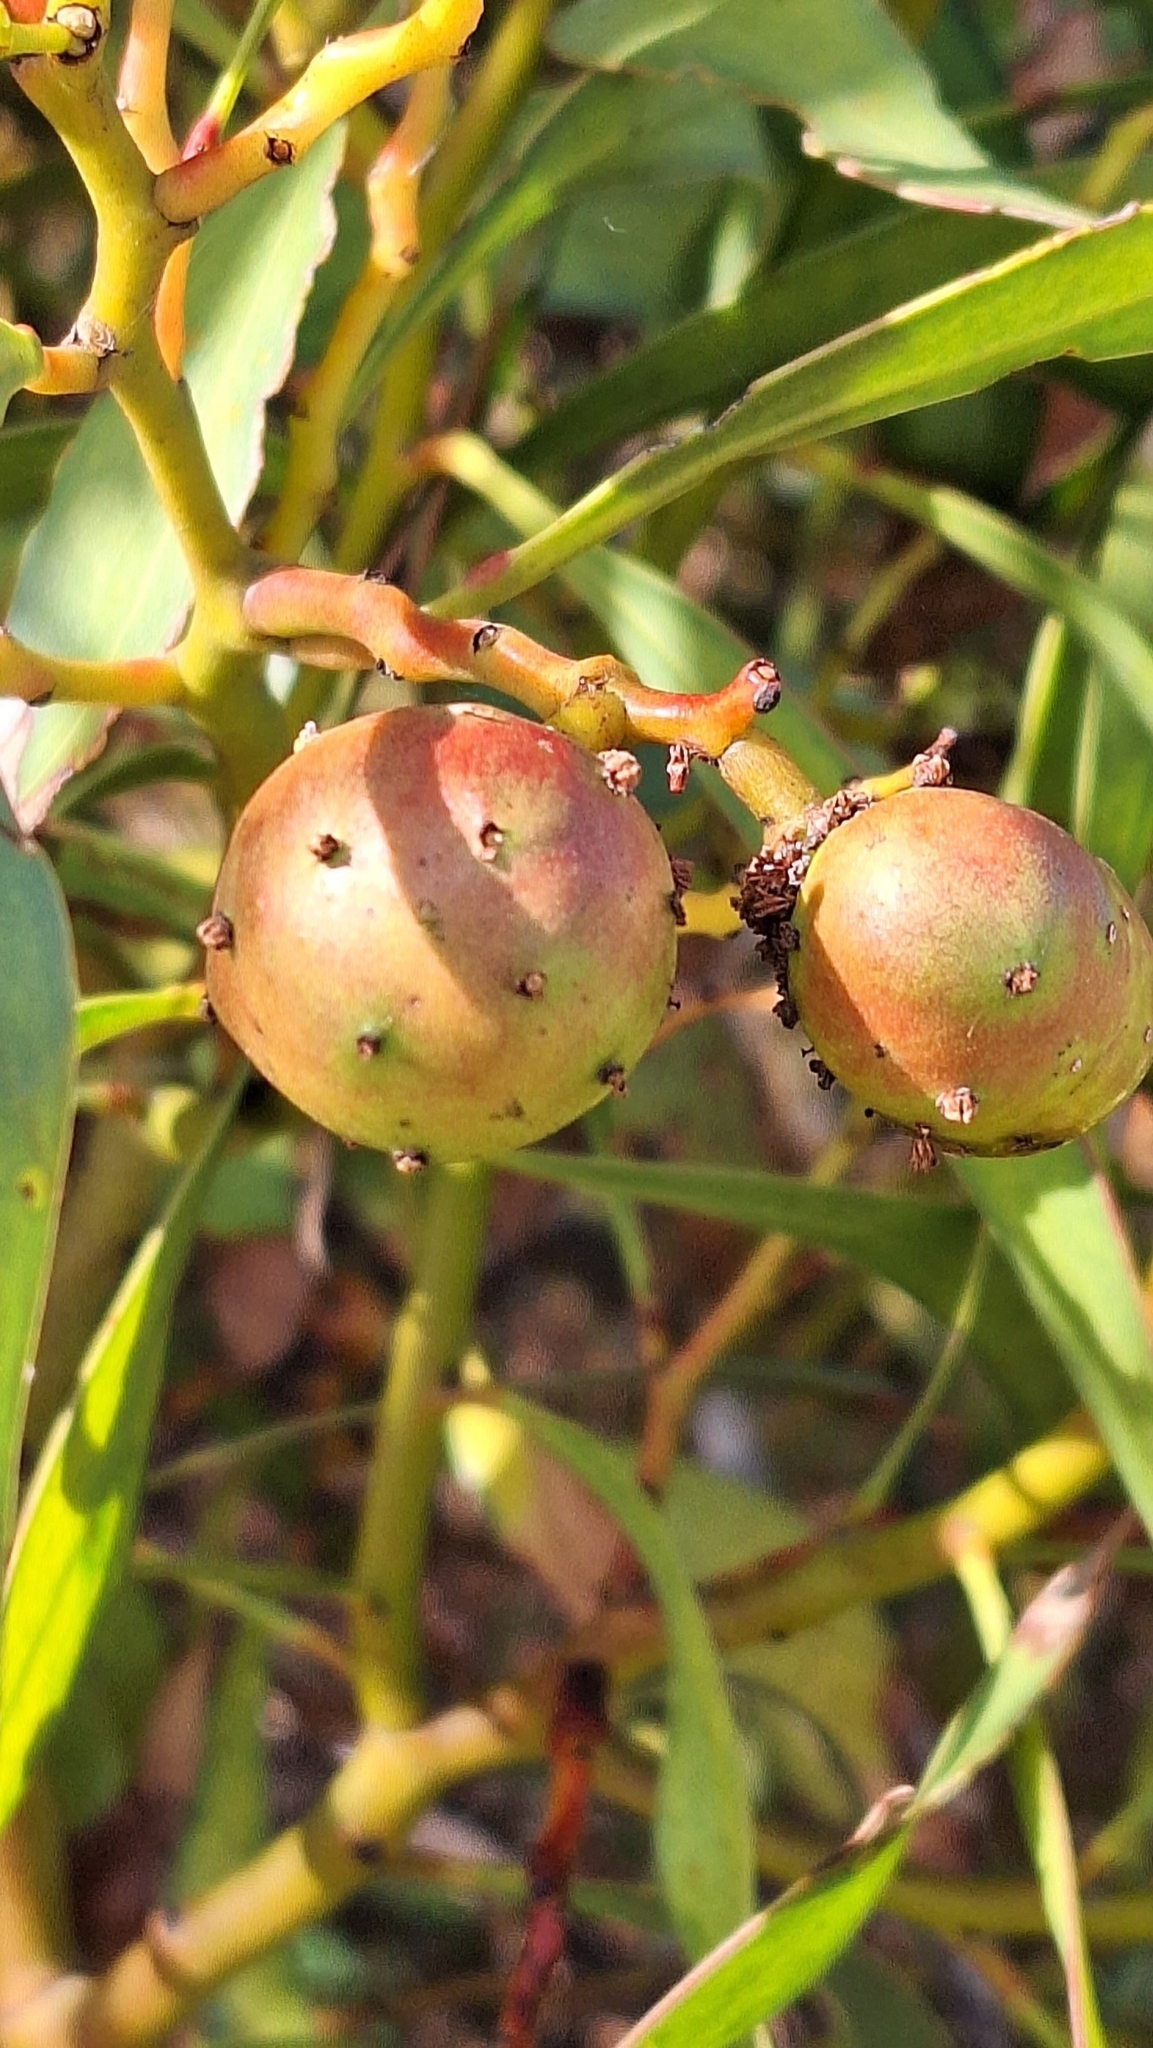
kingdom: Animalia
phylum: Arthropoda
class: Insecta
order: Hymenoptera
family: Pteromalidae
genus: Trichilogaster
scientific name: Trichilogaster signiventris
